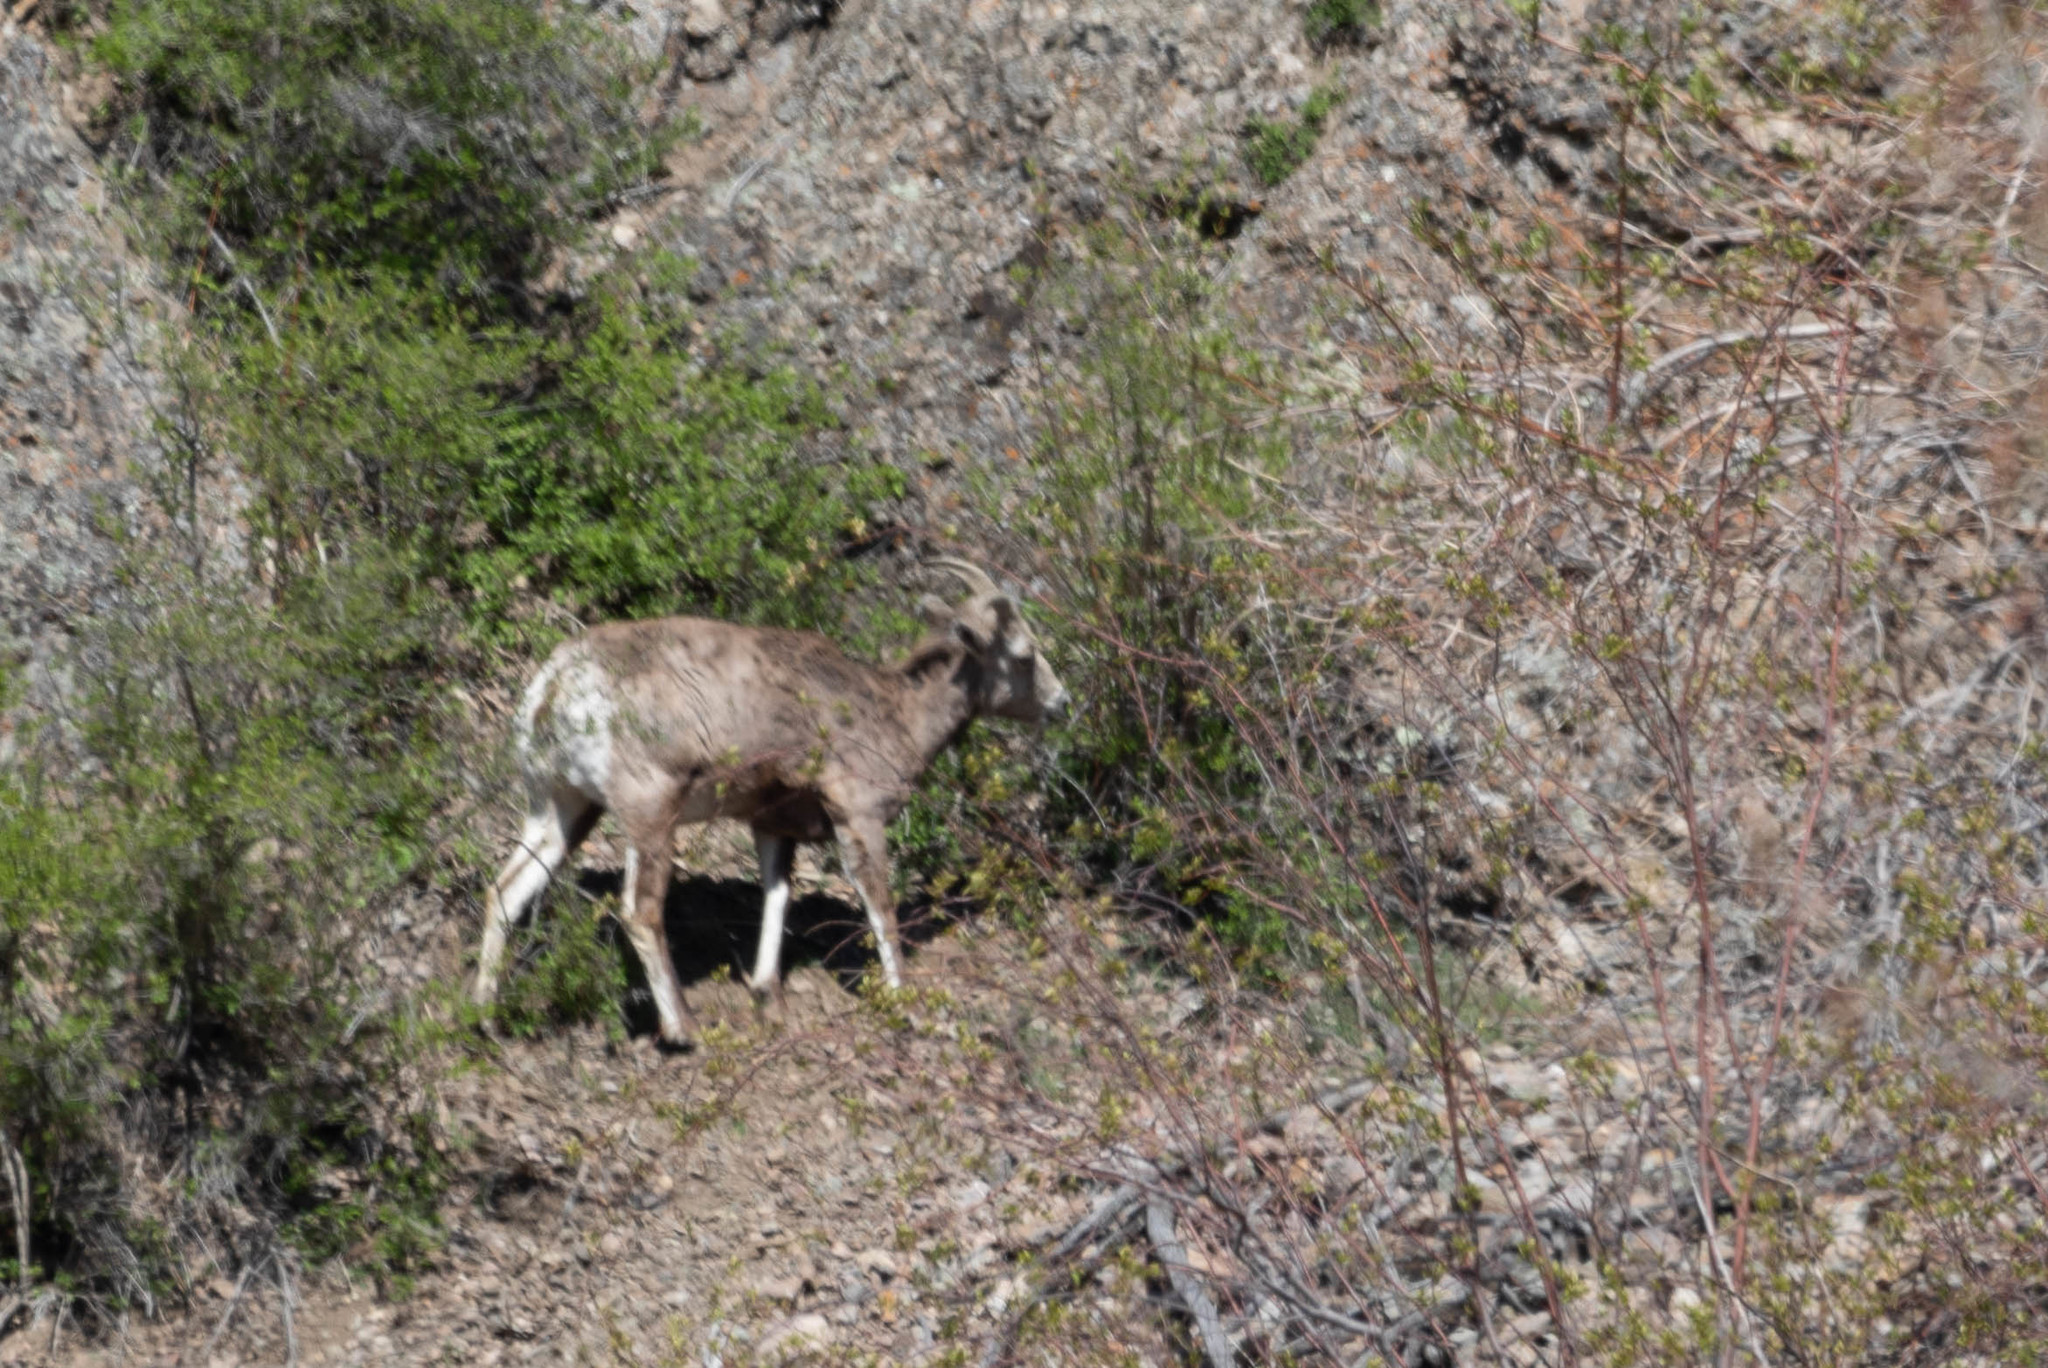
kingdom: Animalia
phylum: Chordata
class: Mammalia
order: Artiodactyla
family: Bovidae
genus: Ovis
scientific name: Ovis canadensis
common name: Bighorn sheep
